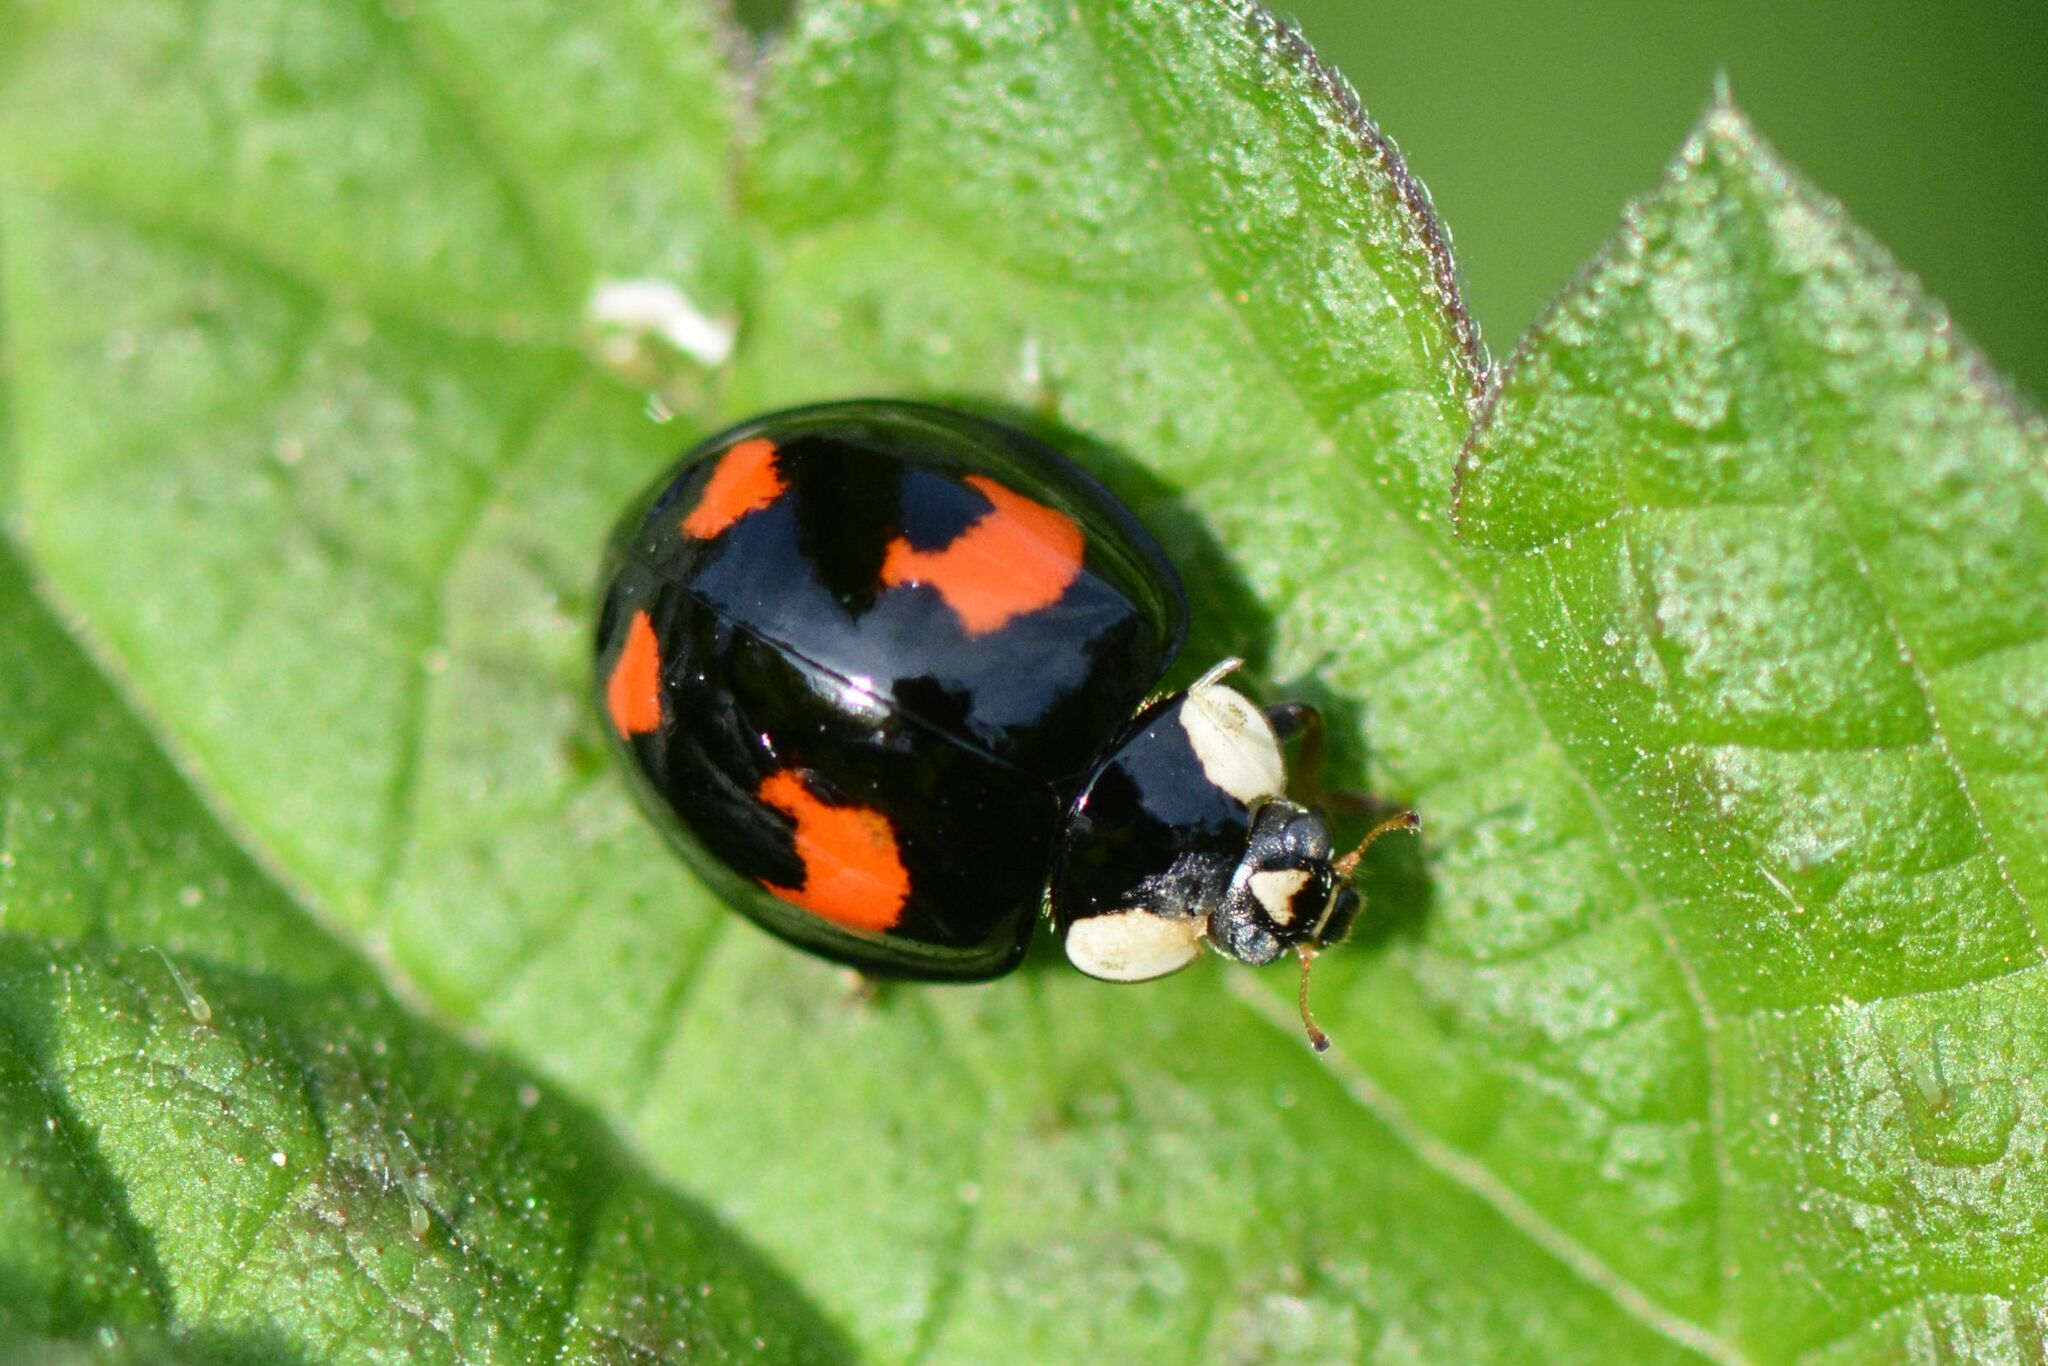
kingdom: Animalia
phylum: Arthropoda
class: Insecta
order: Coleoptera
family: Coccinellidae
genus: Harmonia
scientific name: Harmonia axyridis
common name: Harlequin ladybird
